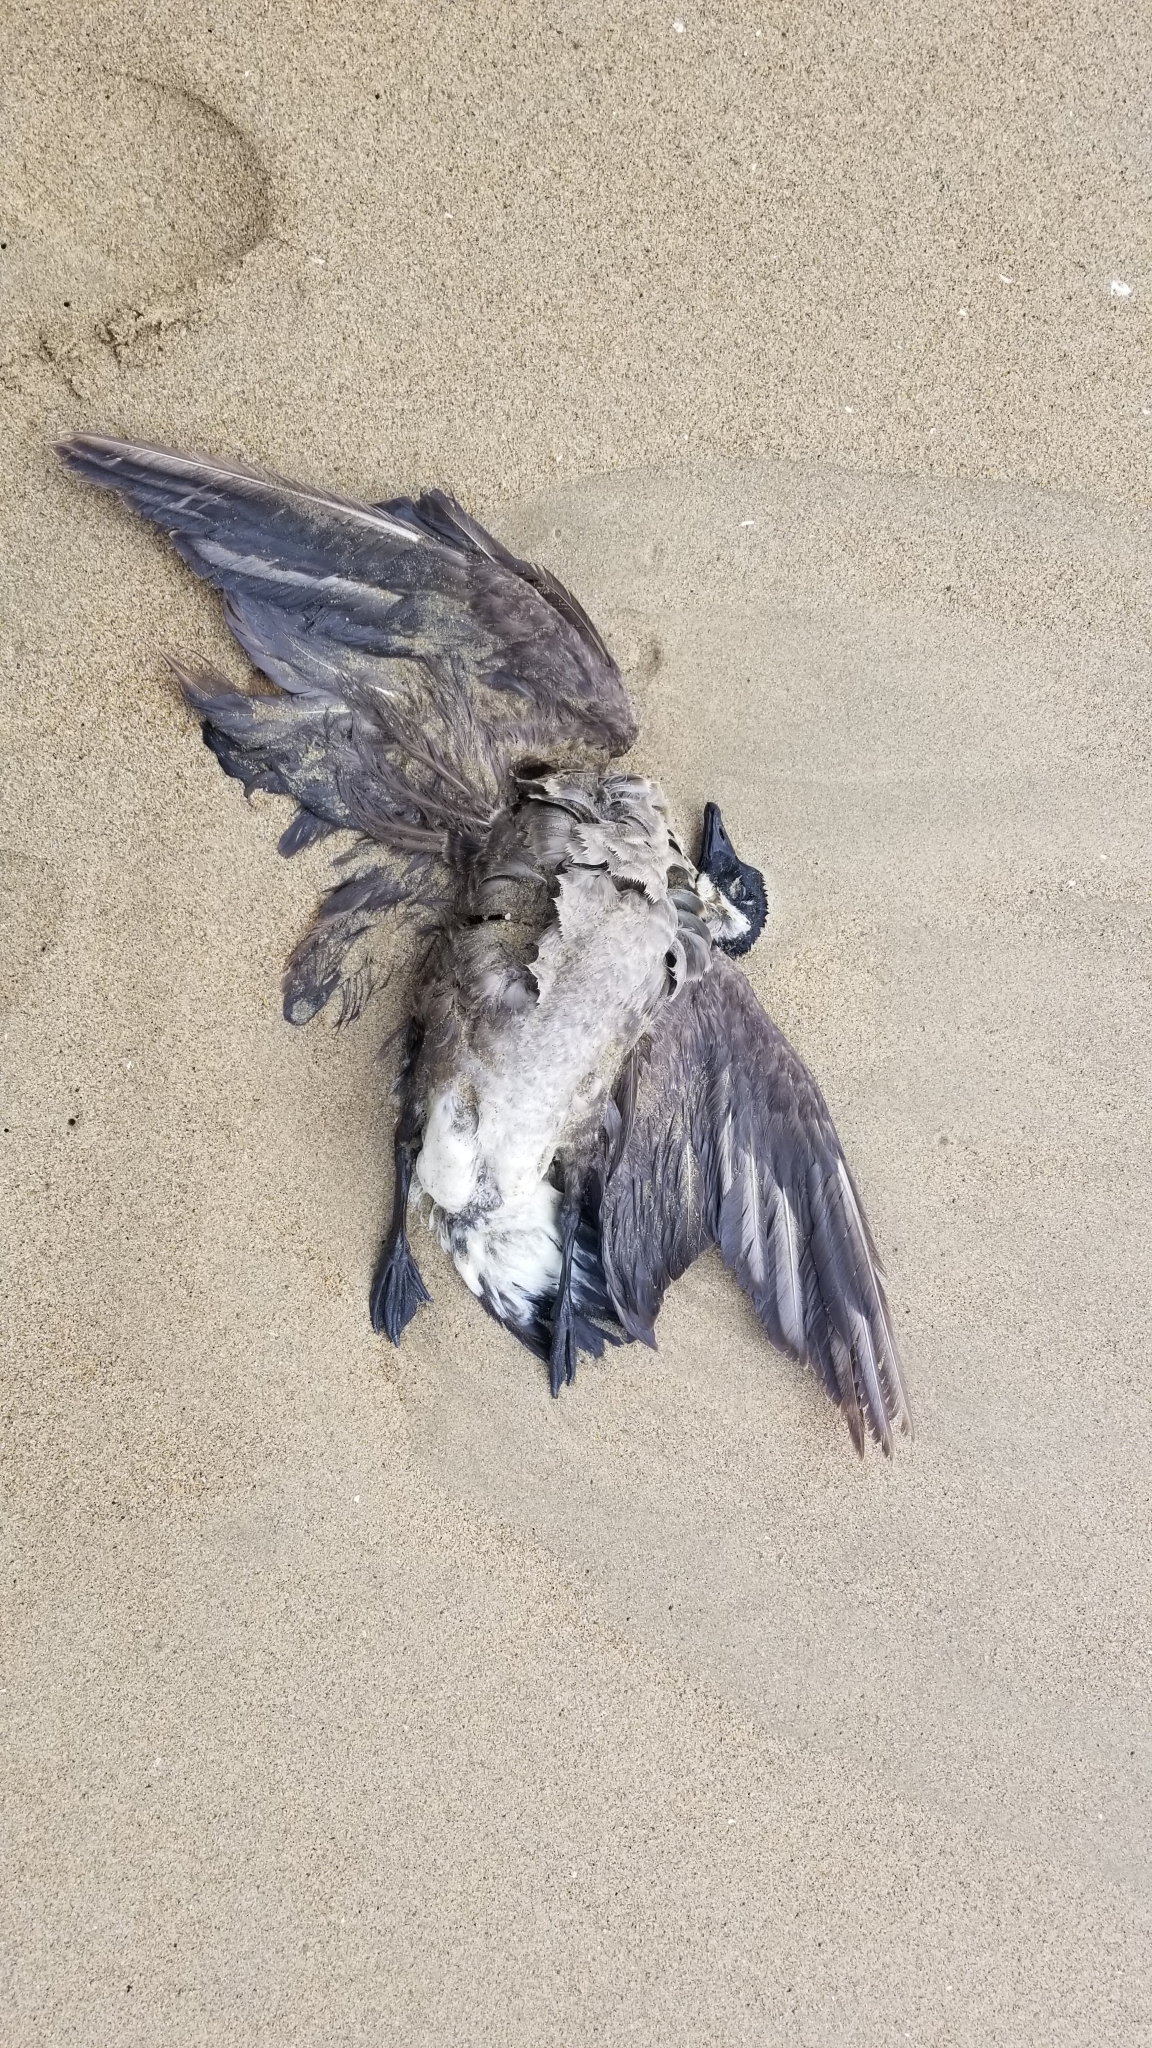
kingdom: Animalia
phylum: Chordata
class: Aves
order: Anseriformes
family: Anatidae
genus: Branta
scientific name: Branta hutchinsii
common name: Cackling goose
